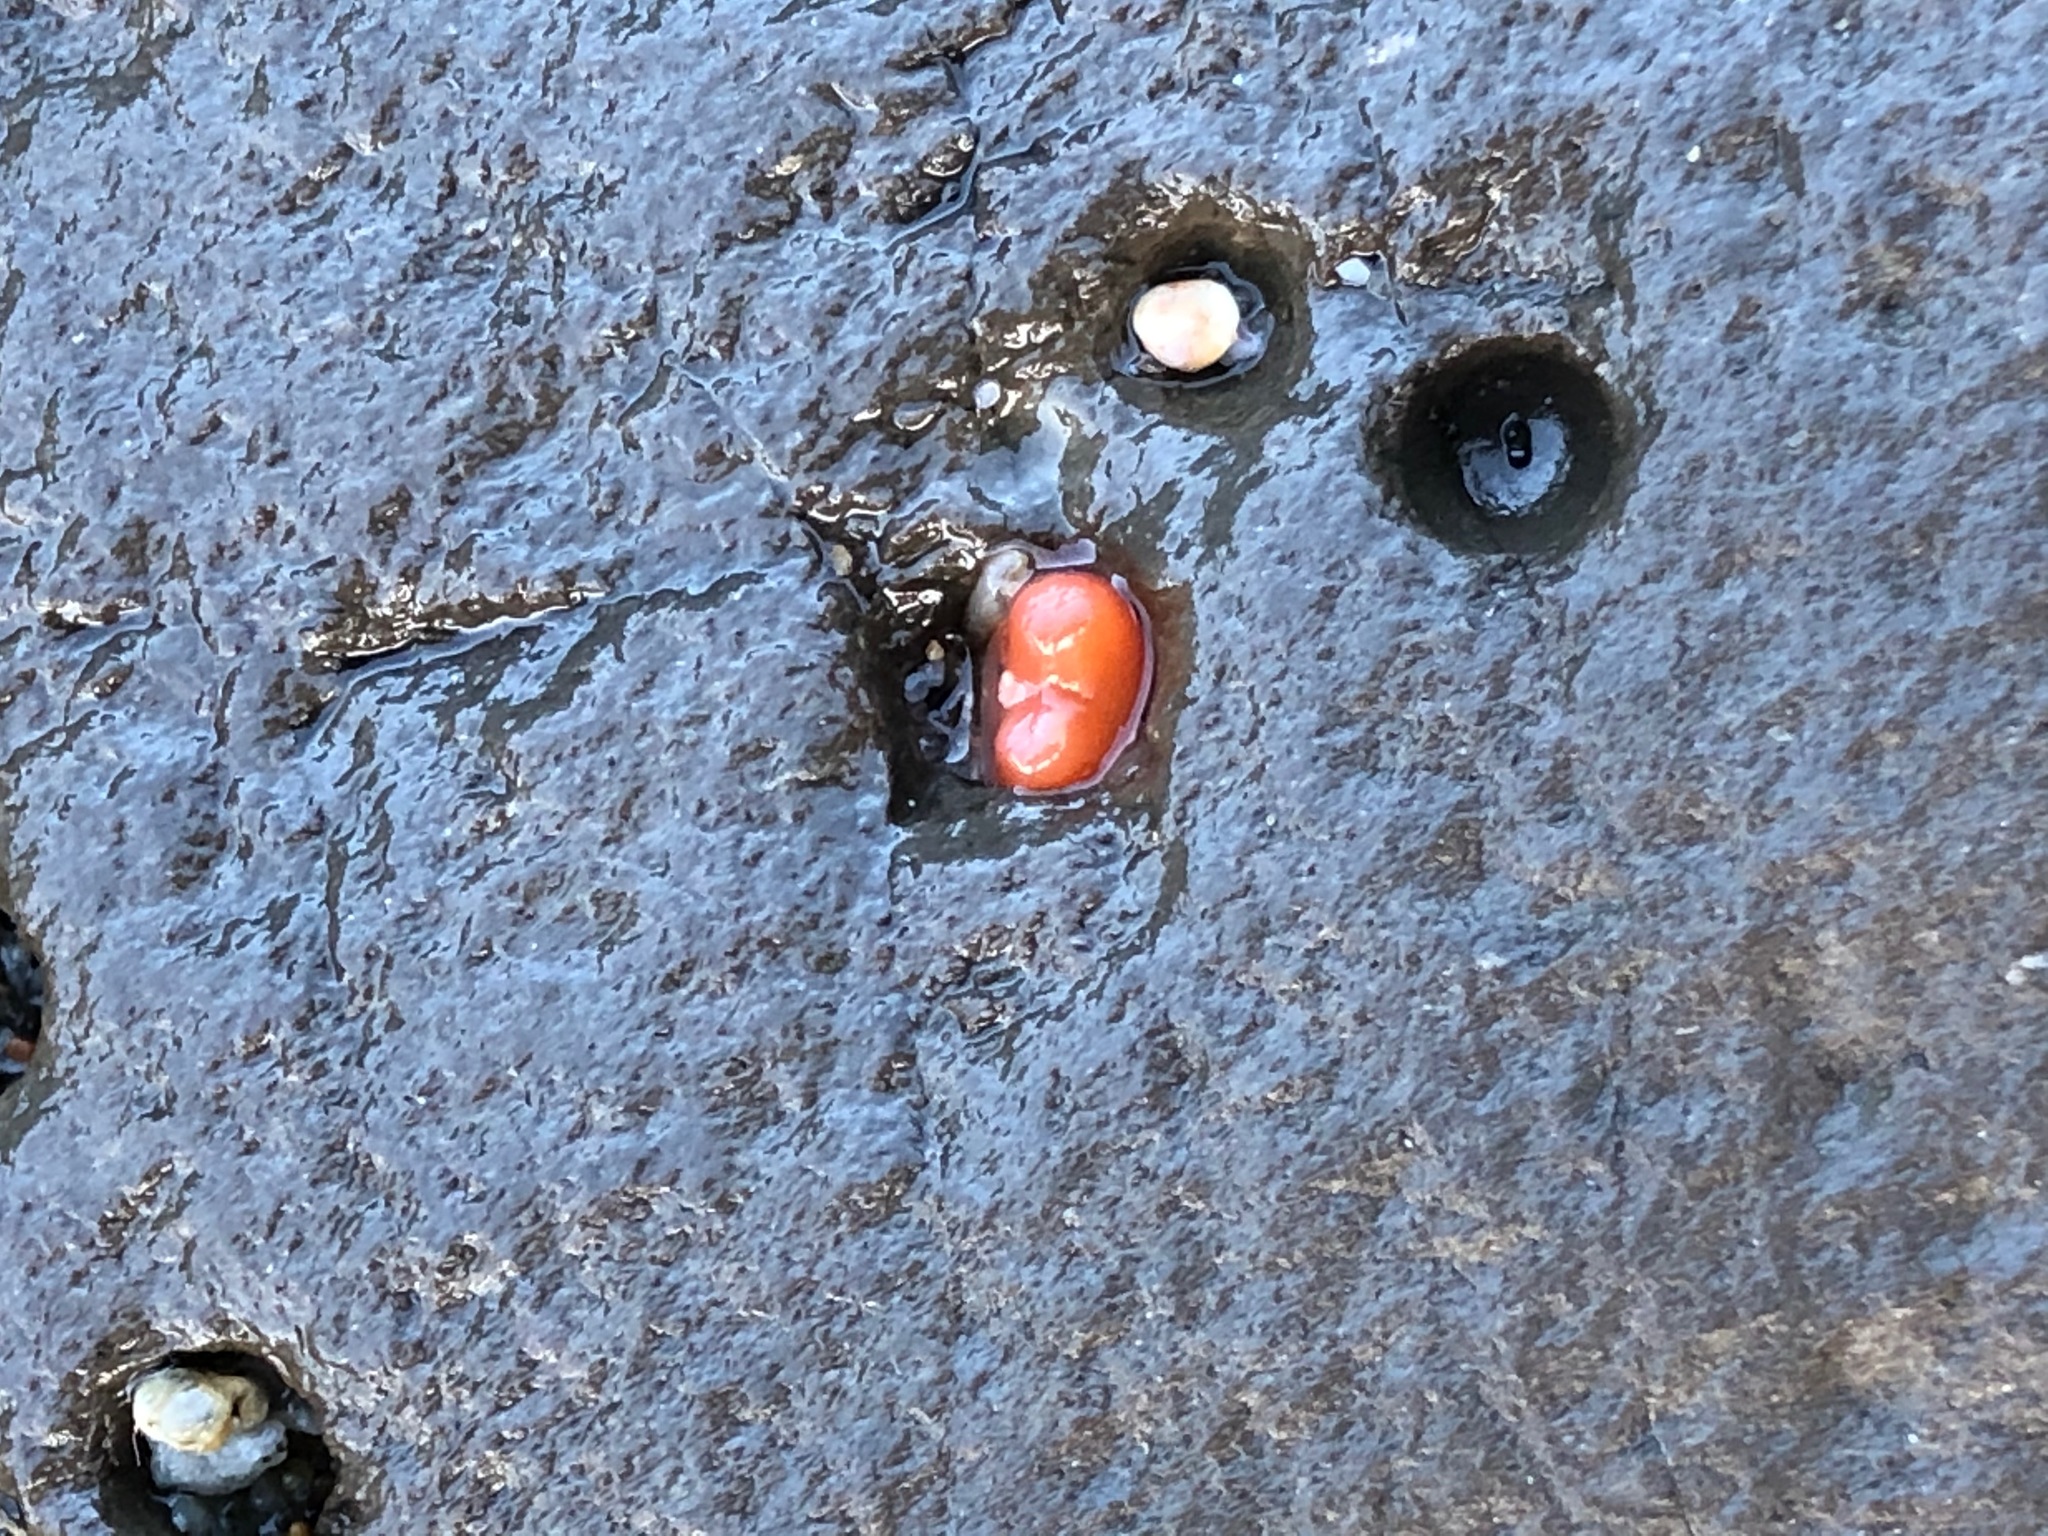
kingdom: Animalia
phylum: Mollusca
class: Bivalvia
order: Adapedonta
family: Hiatellidae
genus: Hiatella
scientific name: Hiatella arctica
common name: Arctic hiatella
